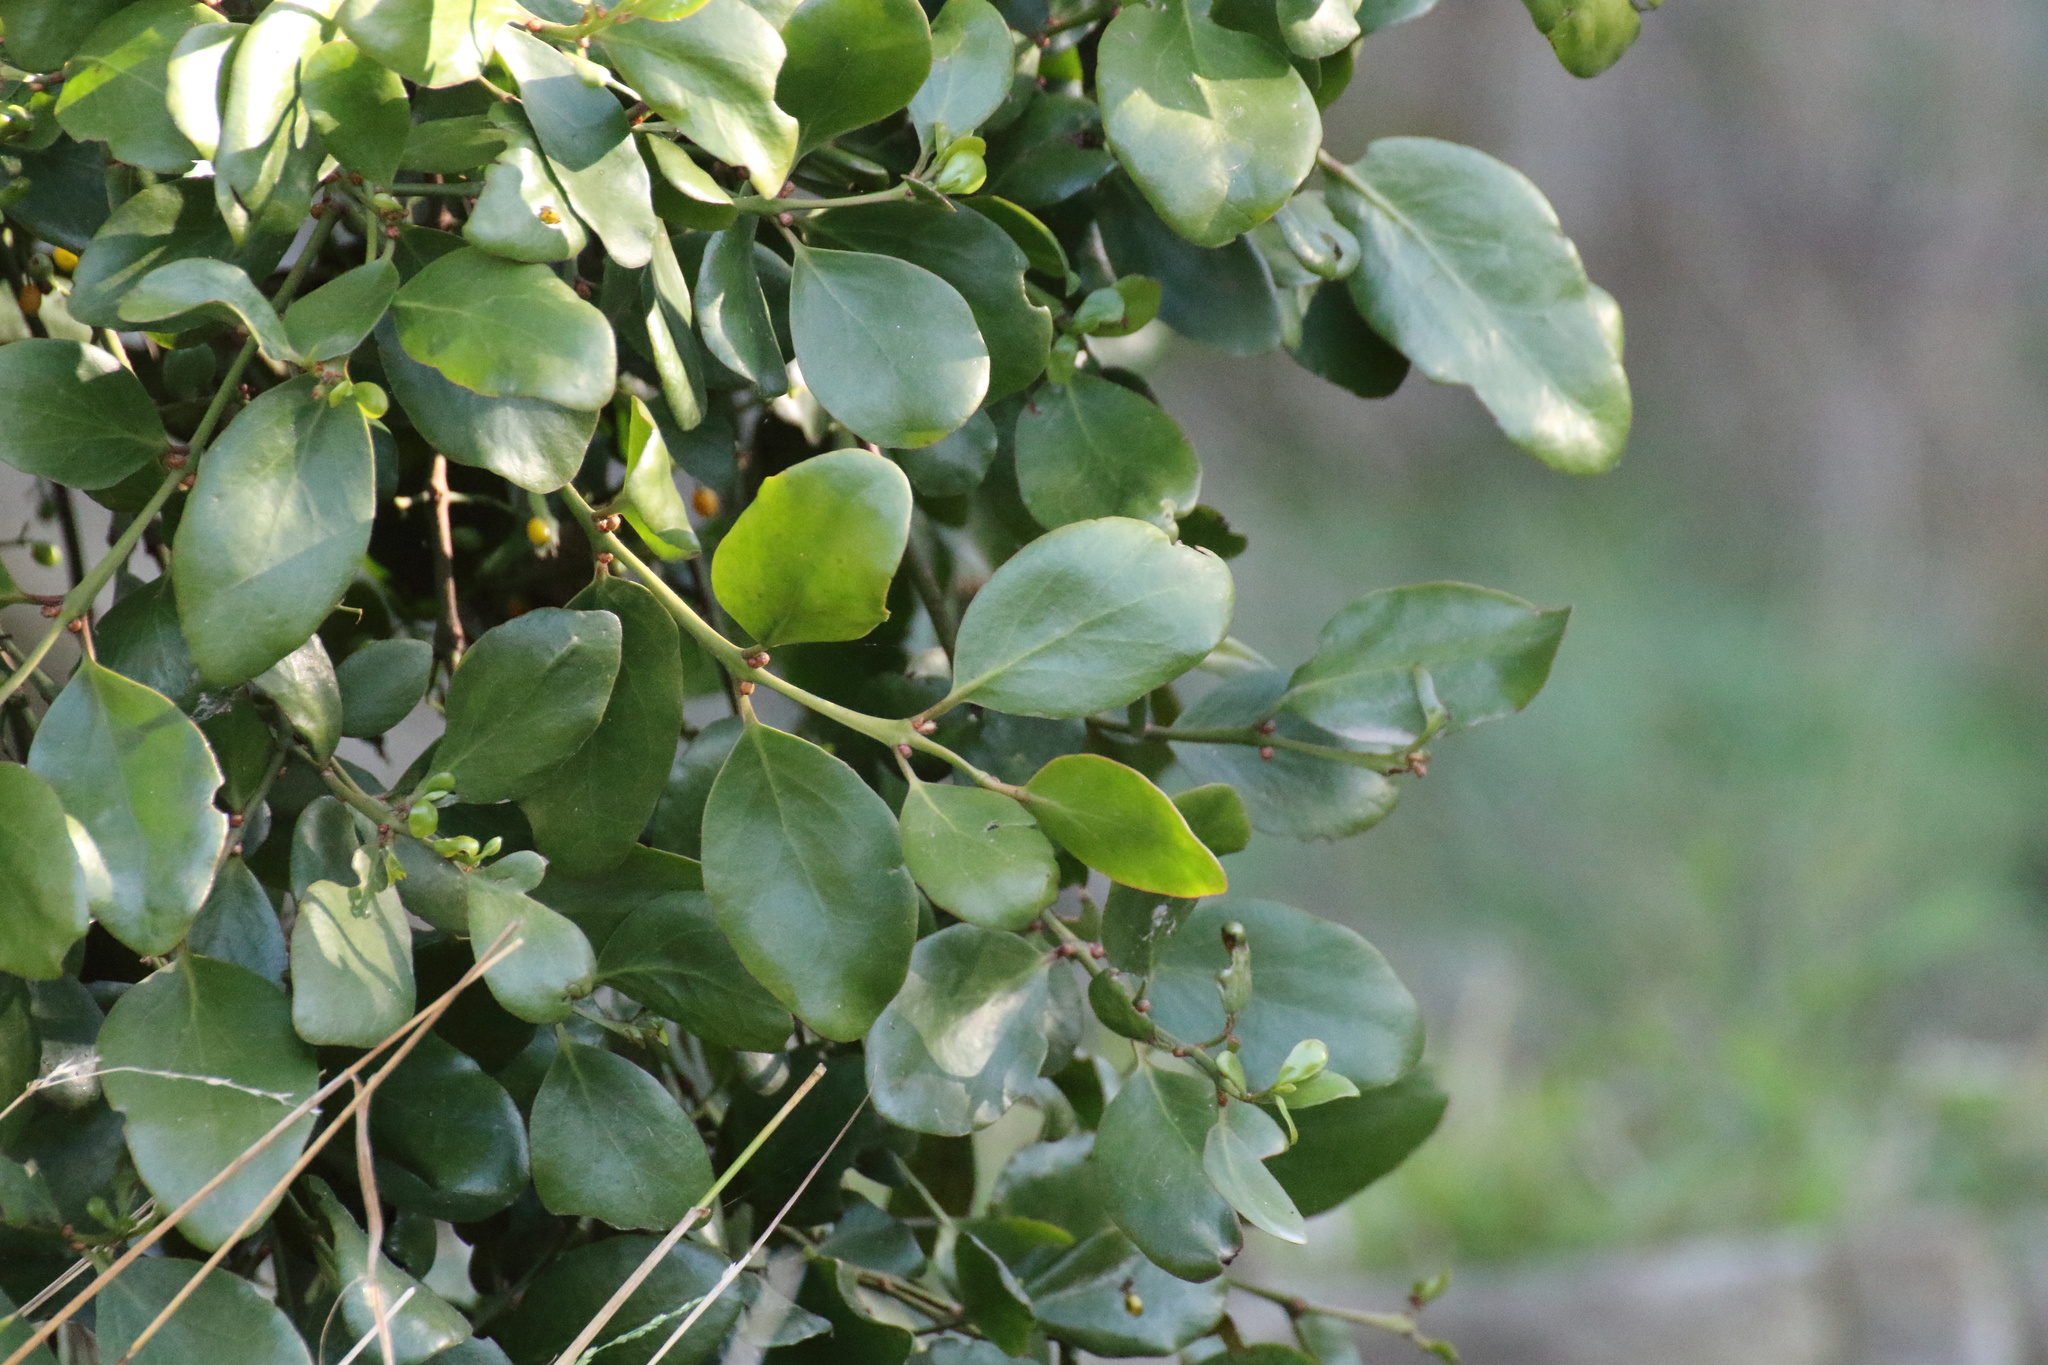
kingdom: Plantae
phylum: Tracheophyta
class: Magnoliopsida
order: Santalales
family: Loranthaceae
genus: Ileostylus
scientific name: Ileostylus micranthus
